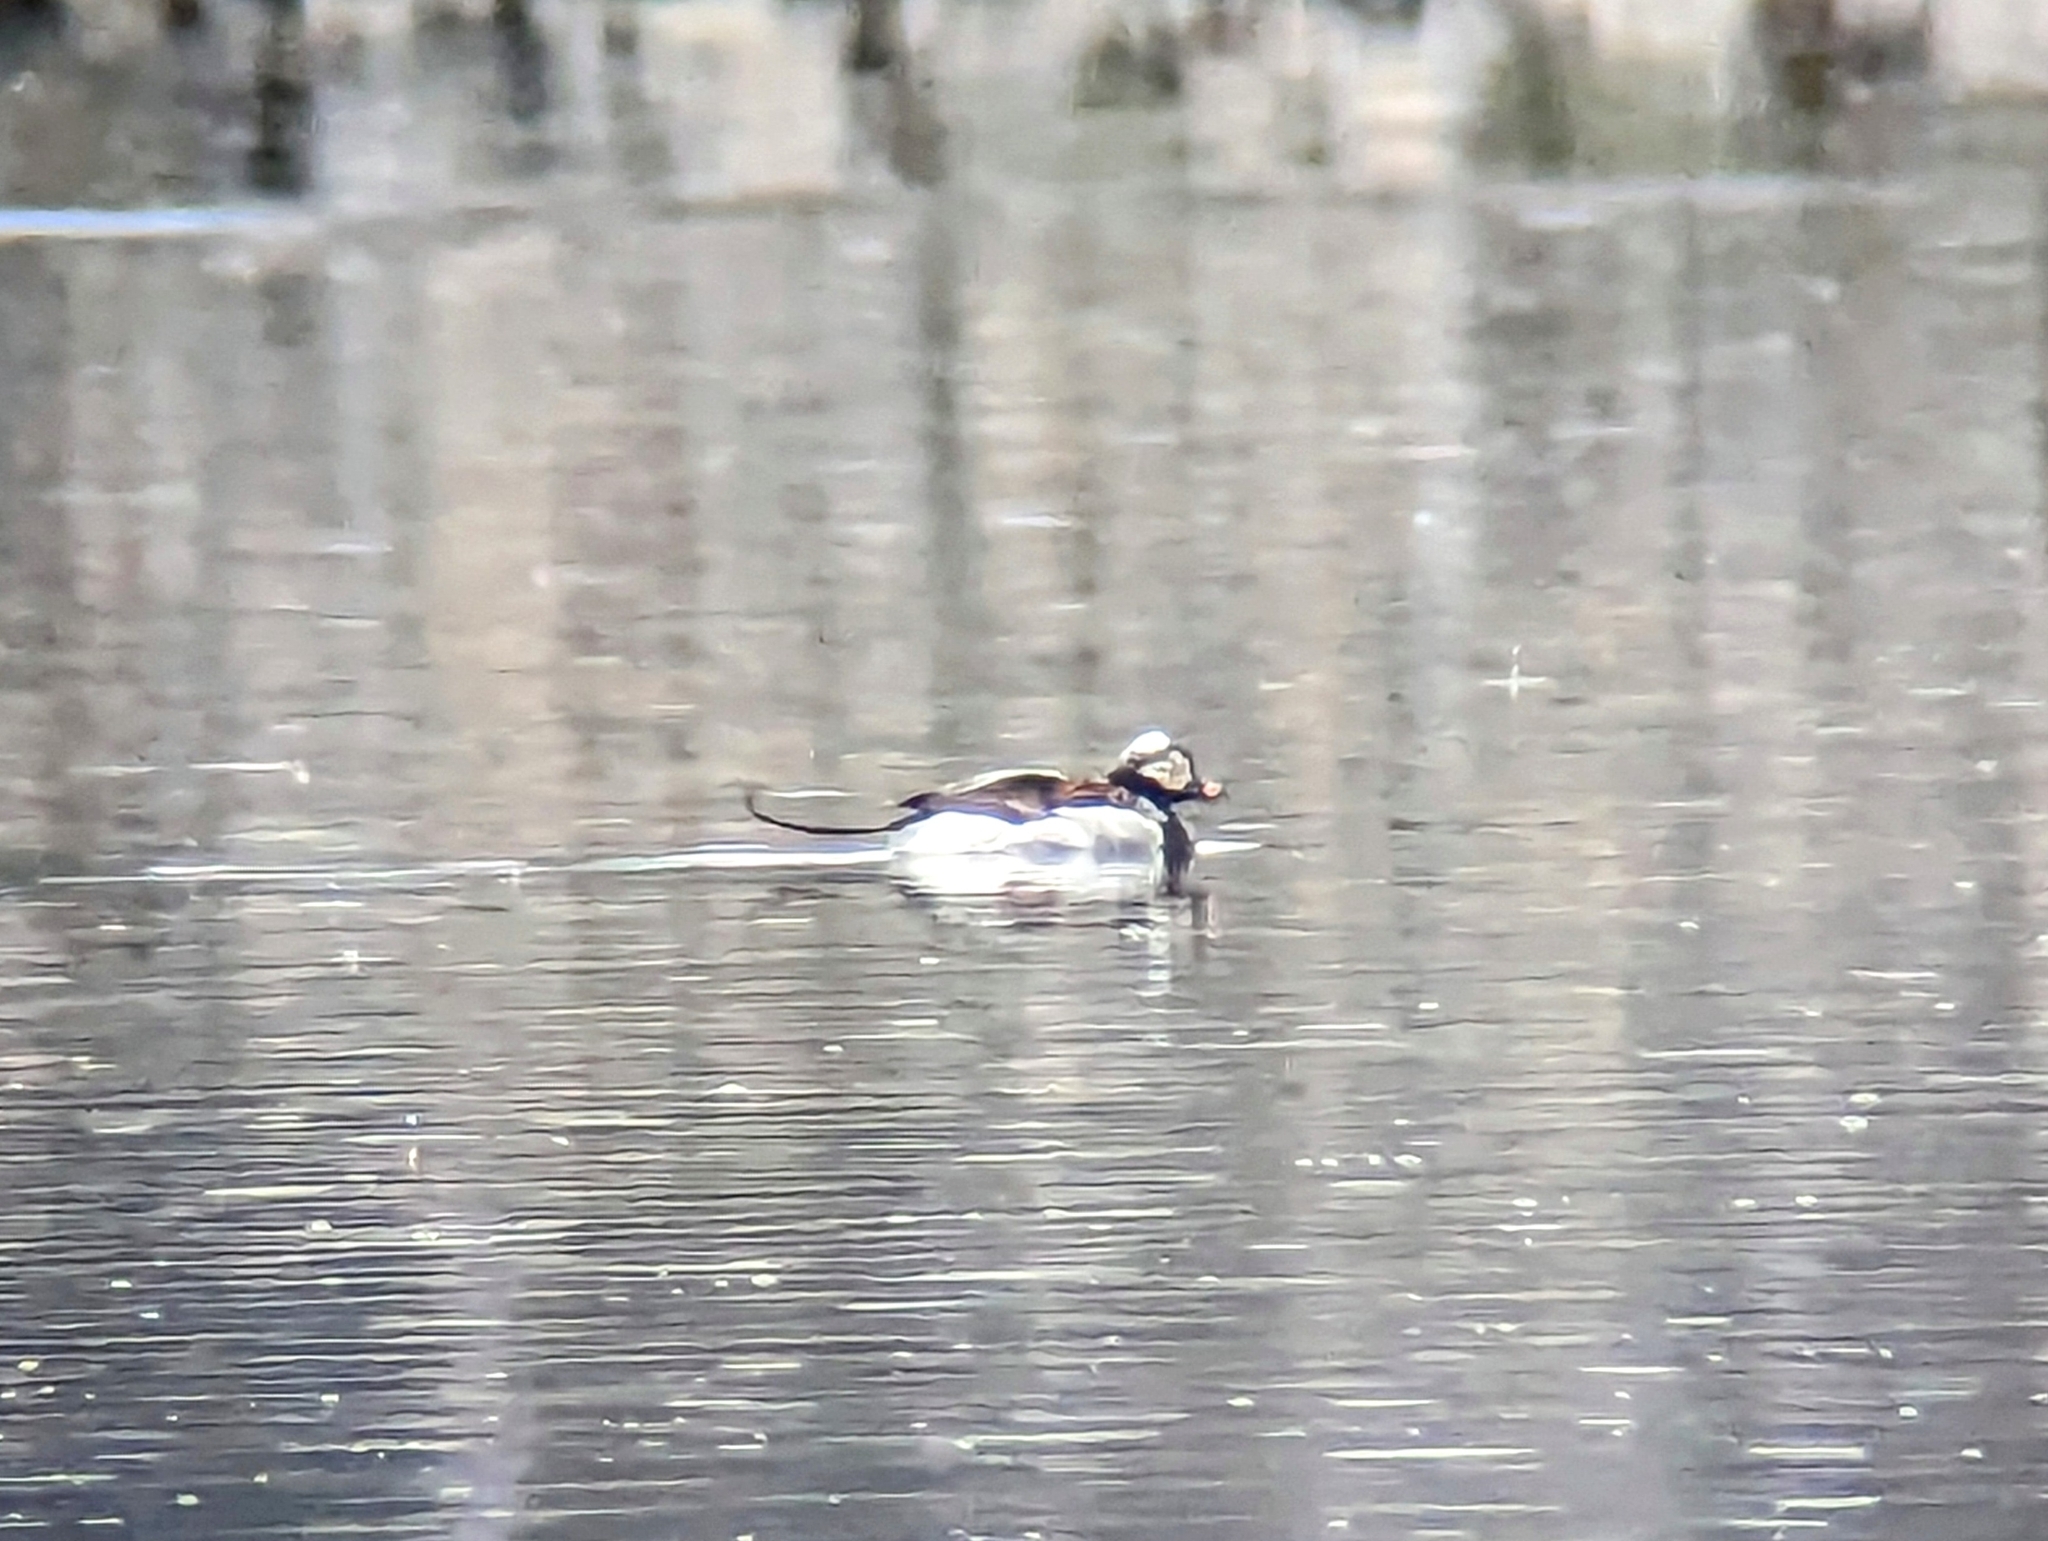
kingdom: Animalia
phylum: Chordata
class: Aves
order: Anseriformes
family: Anatidae
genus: Clangula
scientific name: Clangula hyemalis
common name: Long-tailed duck
